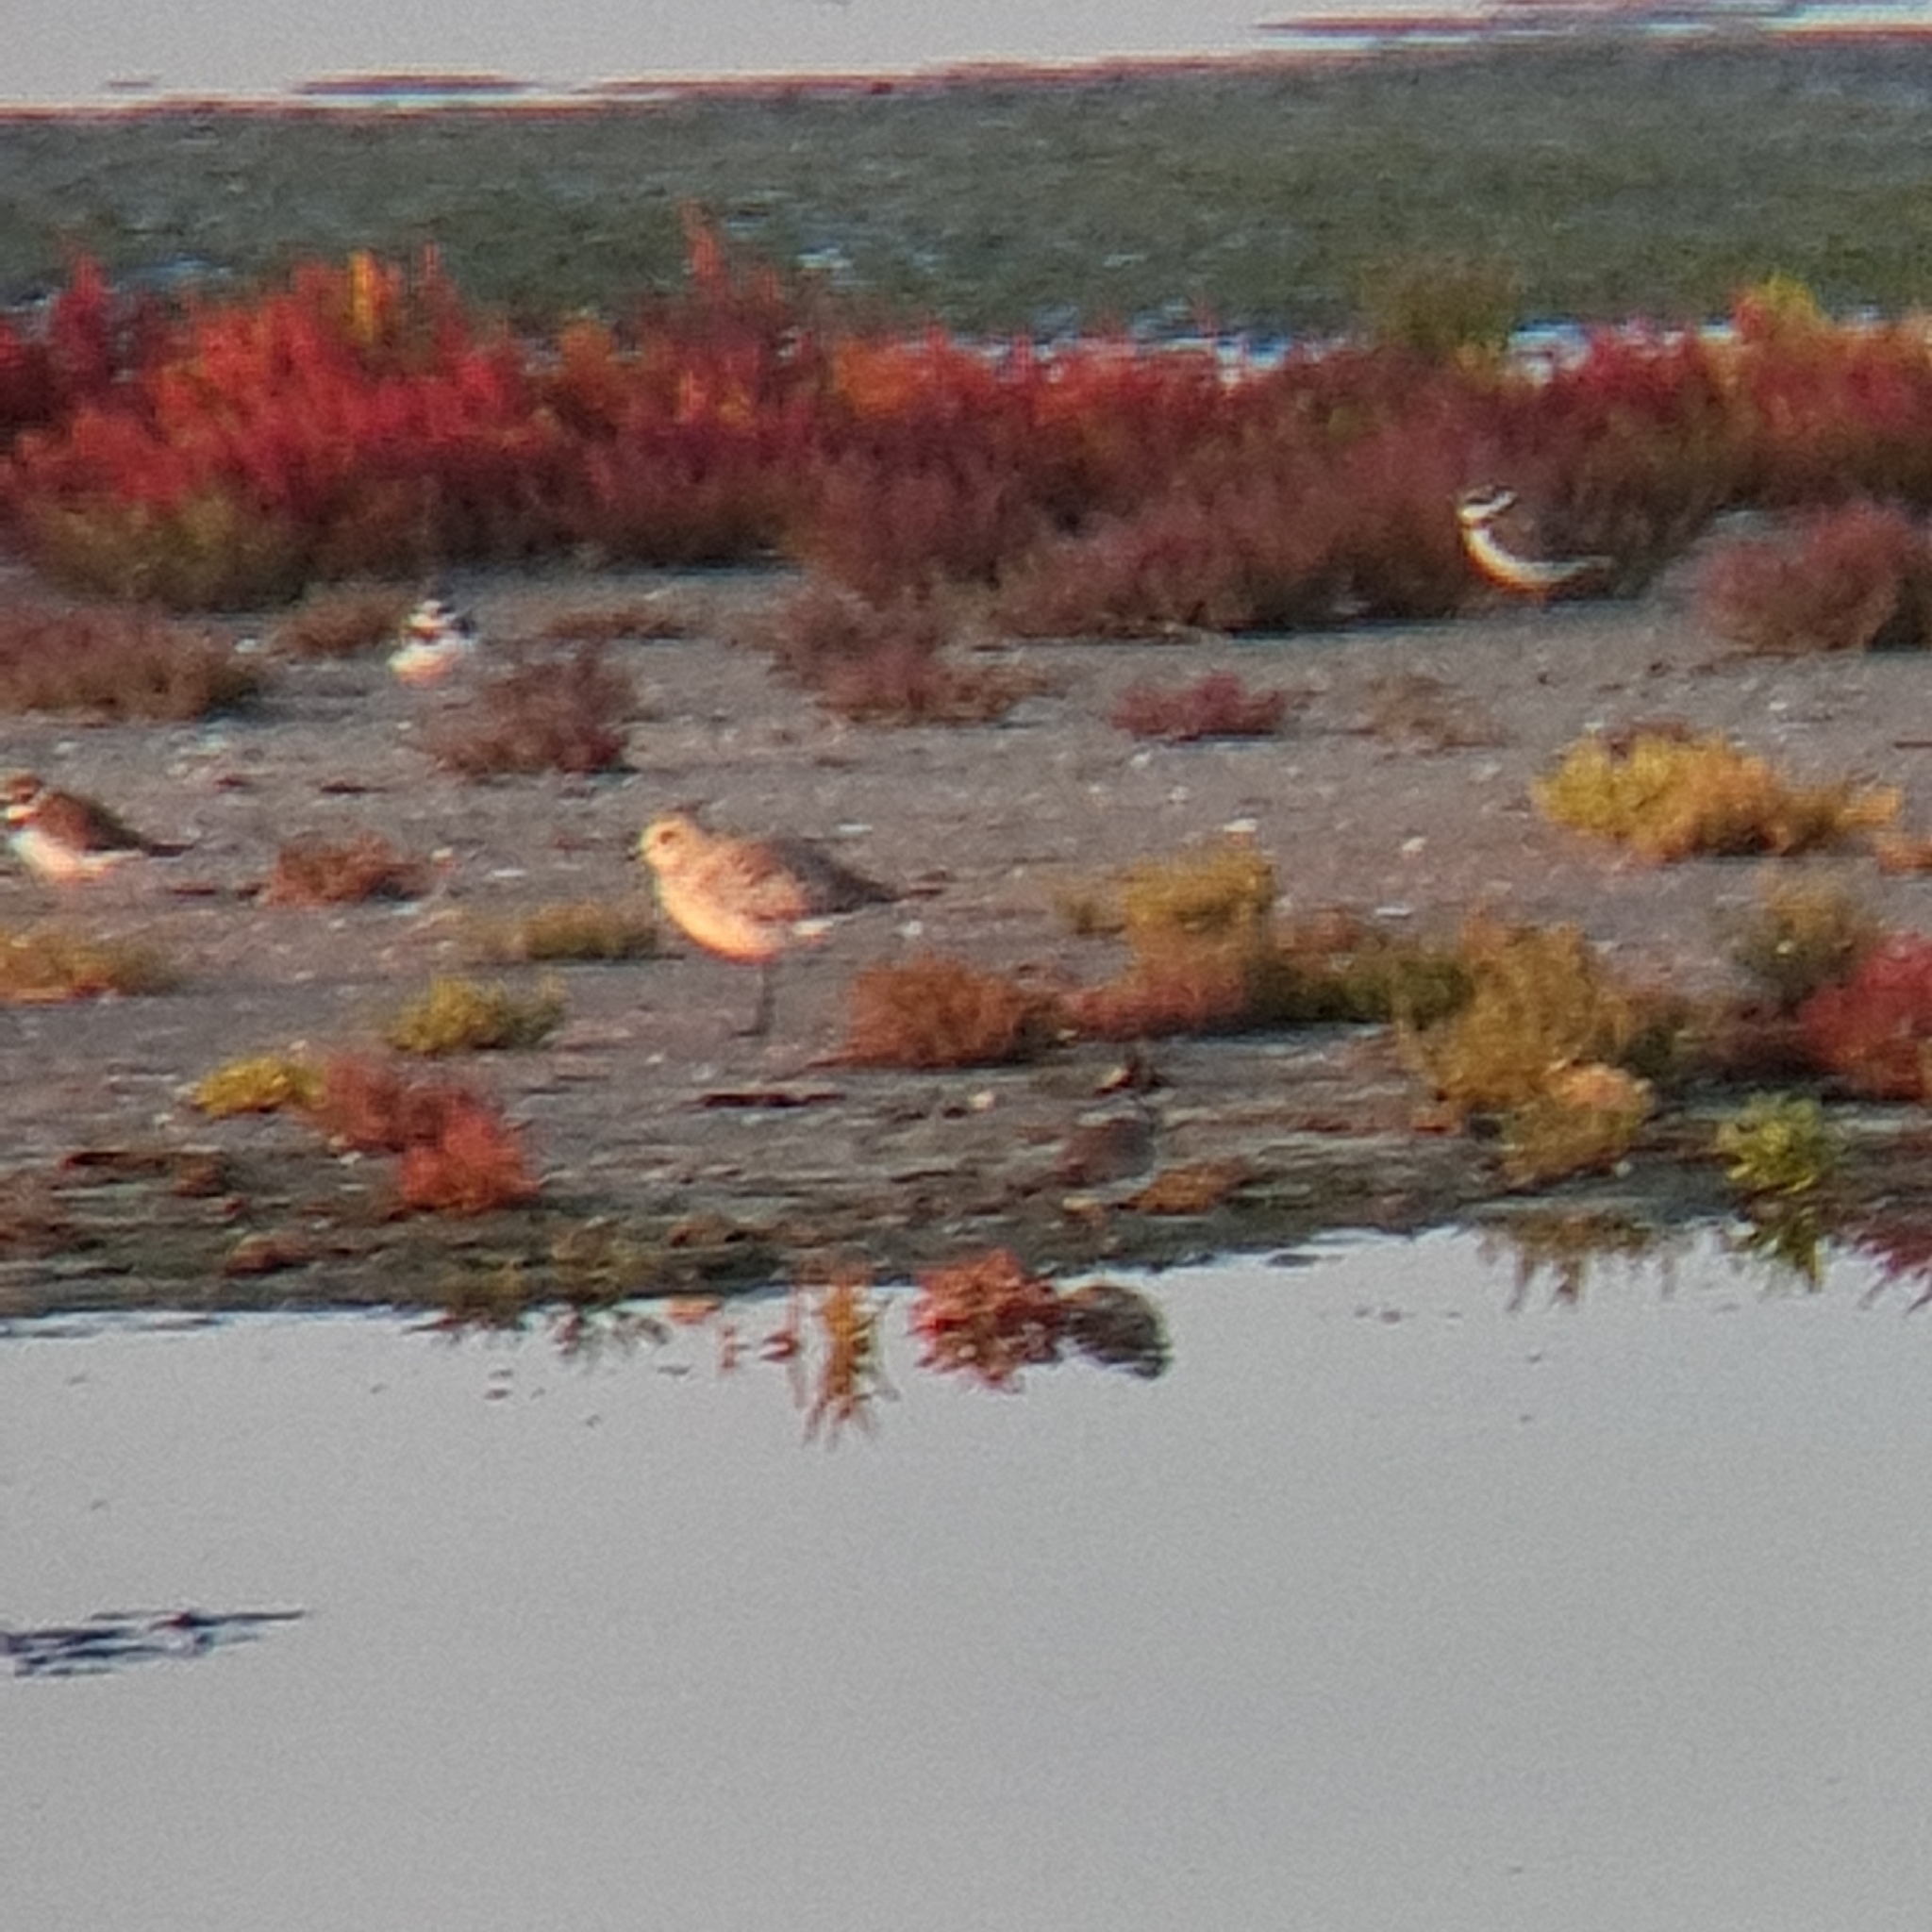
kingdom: Animalia
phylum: Chordata
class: Aves
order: Charadriiformes
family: Charadriidae
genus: Pluvialis
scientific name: Pluvialis squatarola
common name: Grey plover
